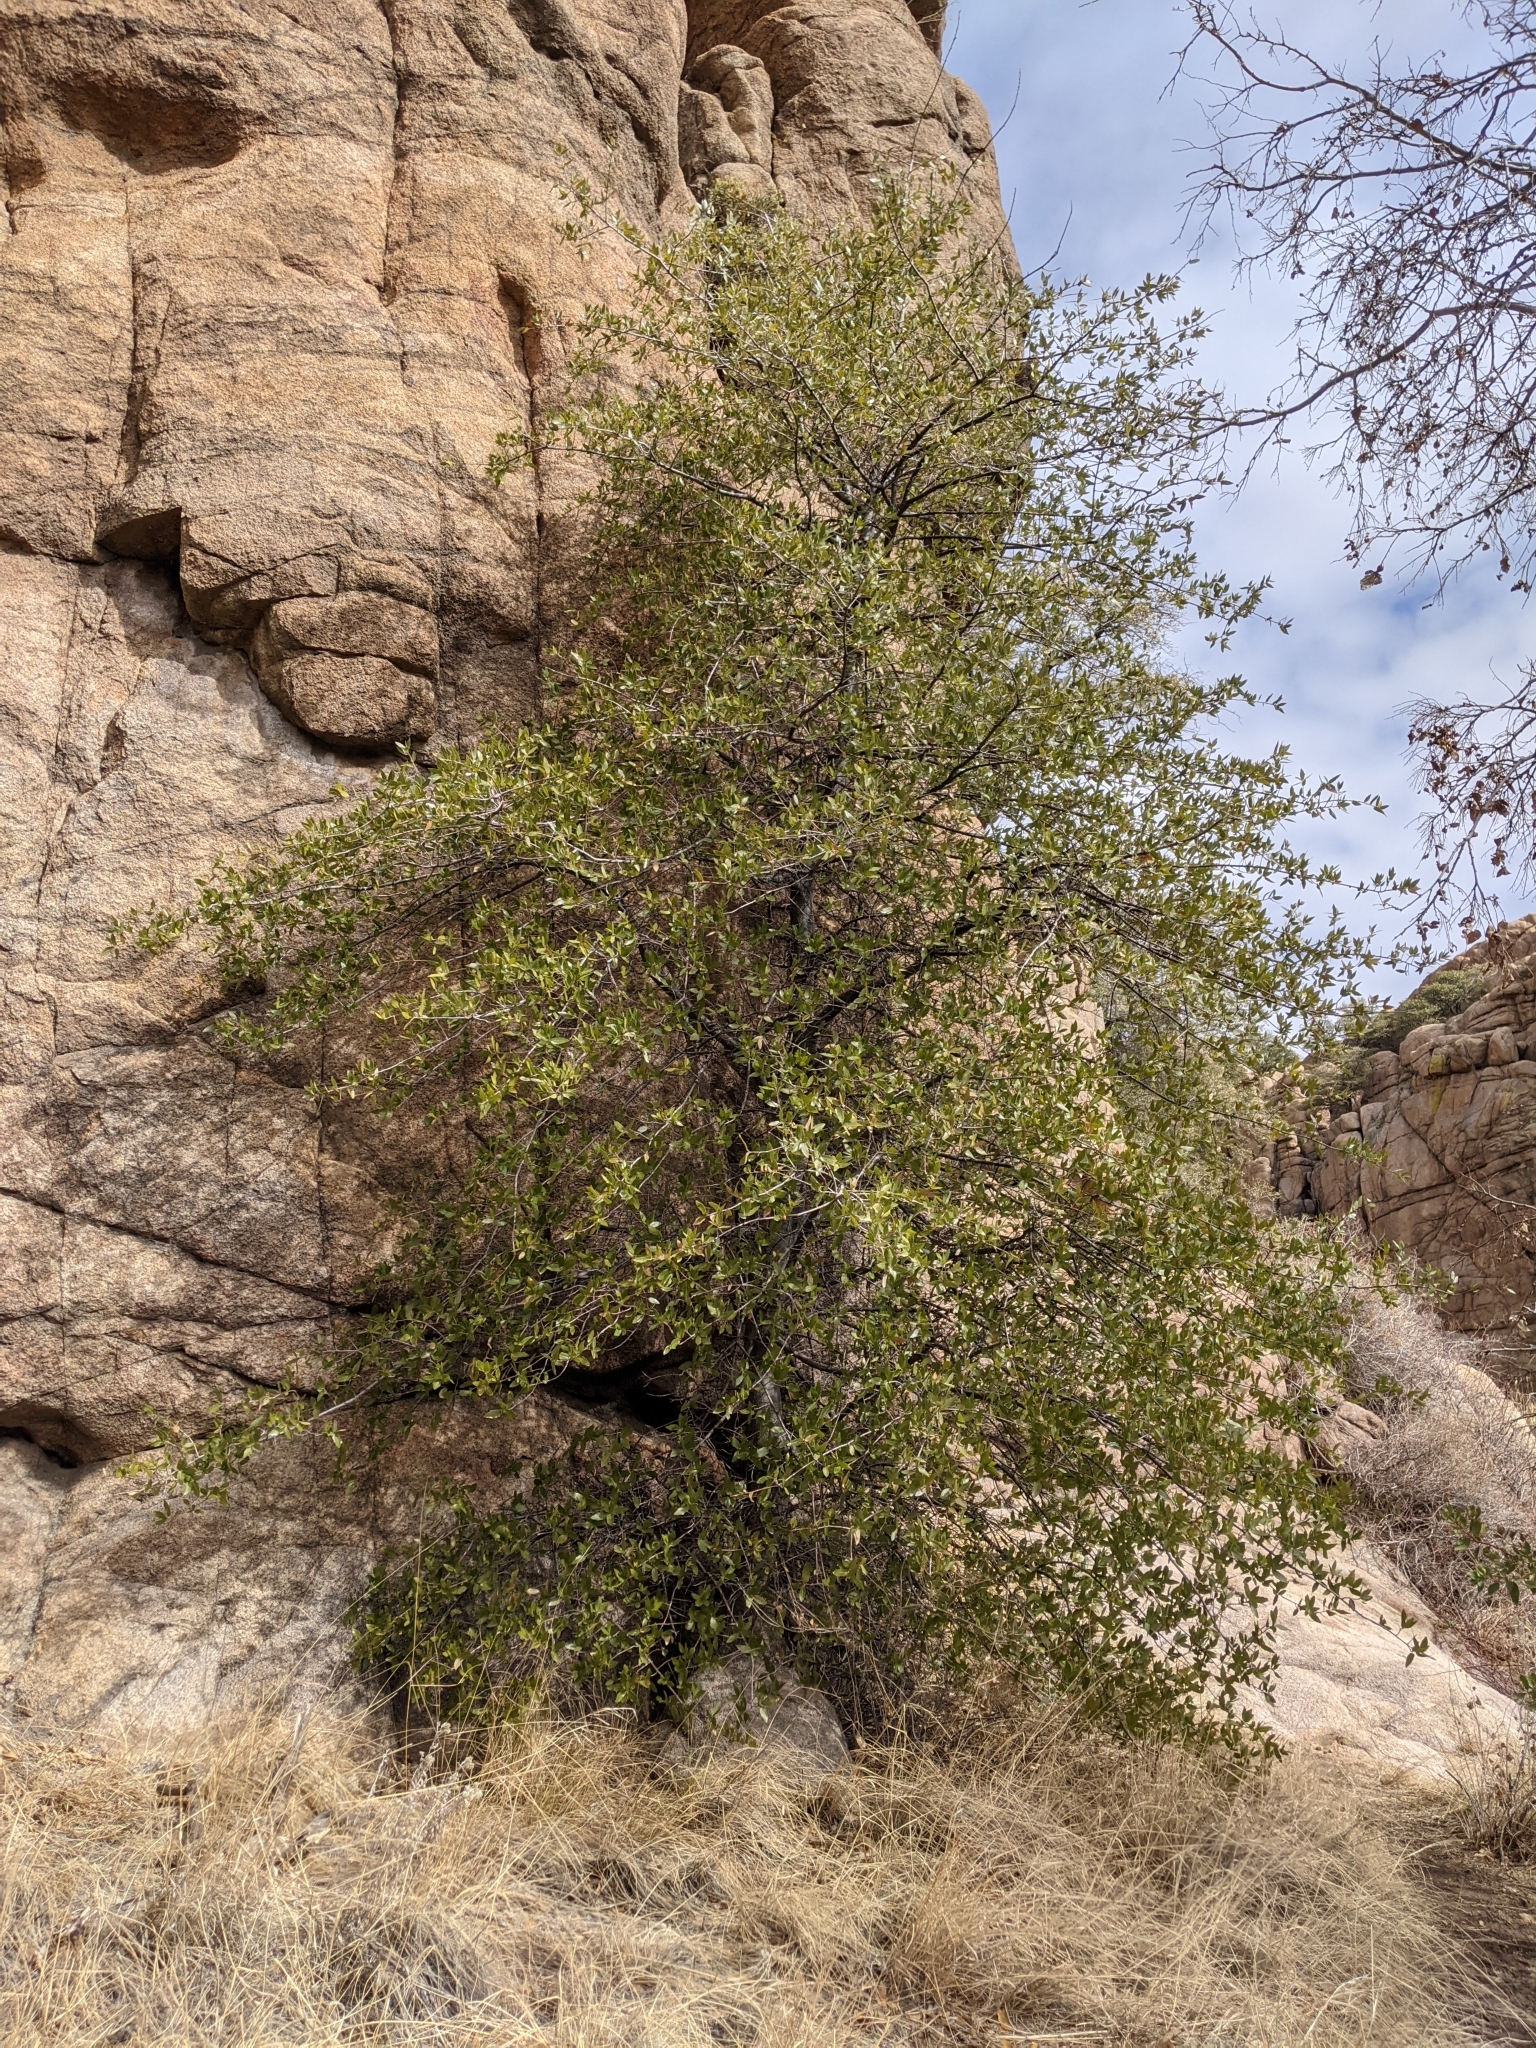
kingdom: Plantae
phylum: Tracheophyta
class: Magnoliopsida
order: Fagales
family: Fagaceae
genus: Quercus
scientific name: Quercus emoryi
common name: Emory oak
